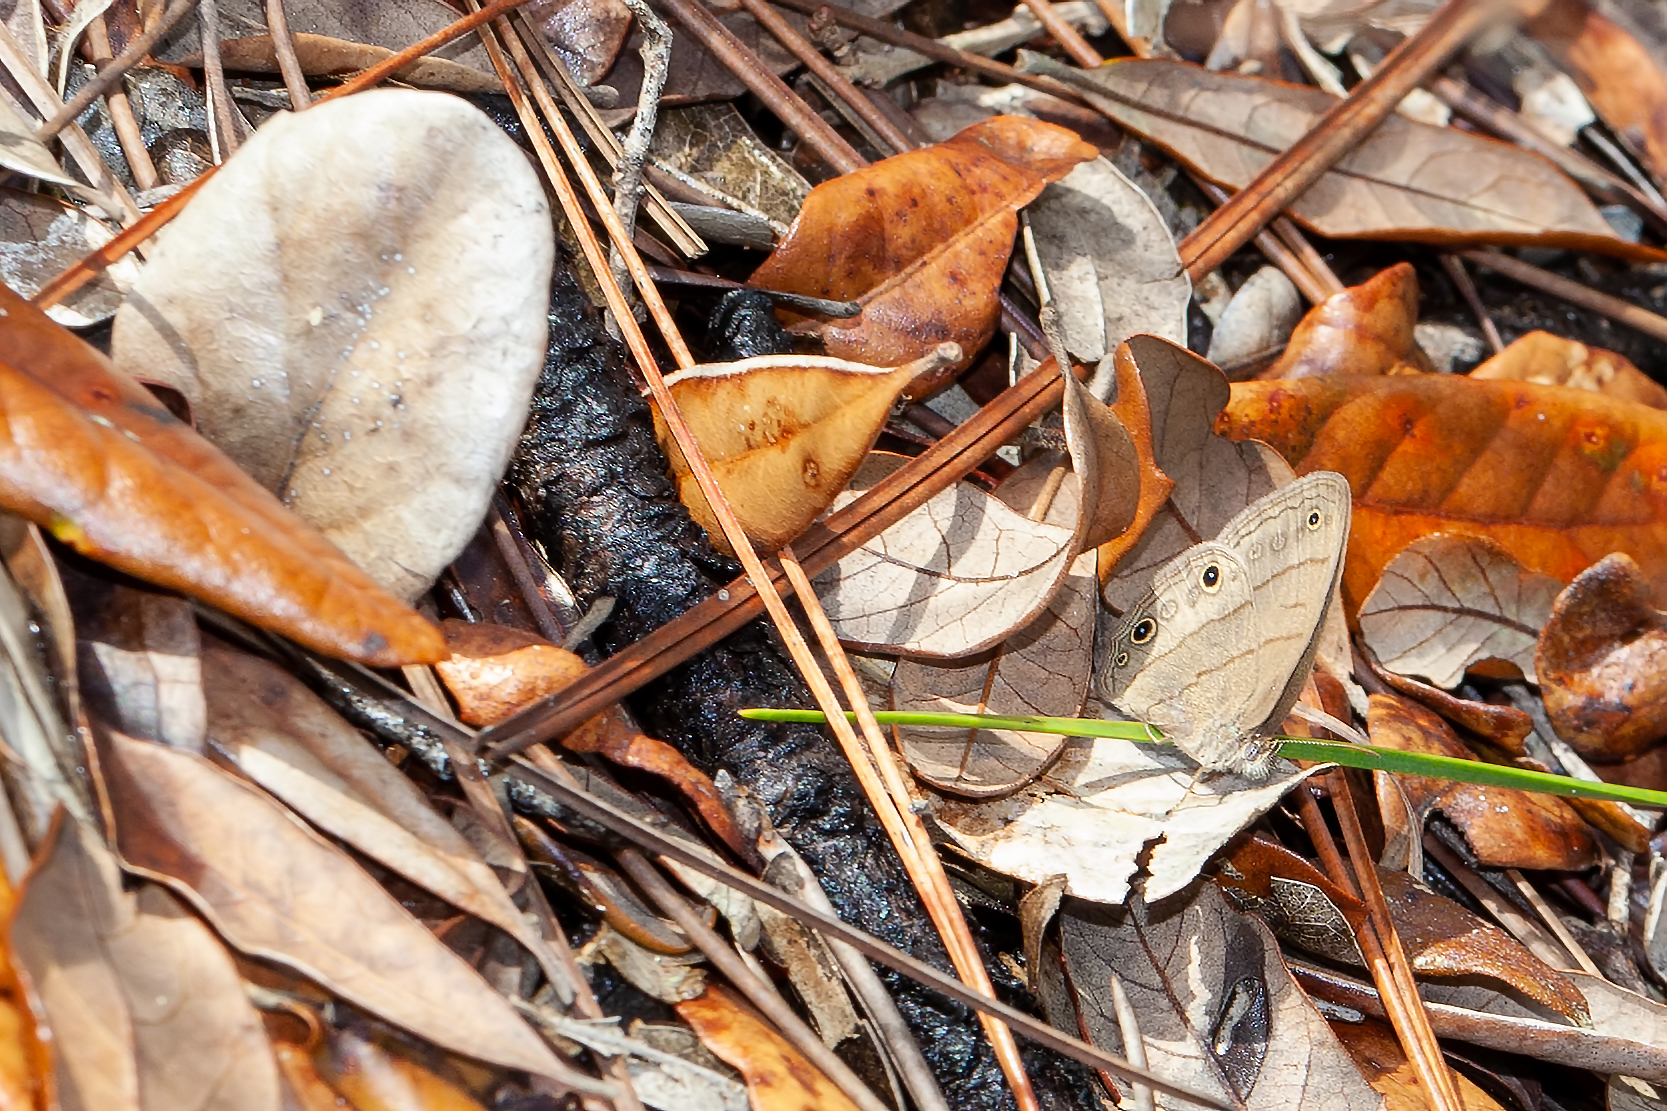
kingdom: Animalia
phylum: Arthropoda
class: Insecta
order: Lepidoptera
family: Nymphalidae
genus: Hermeuptychia
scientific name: Hermeuptychia hermes
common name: Hermes satyr
